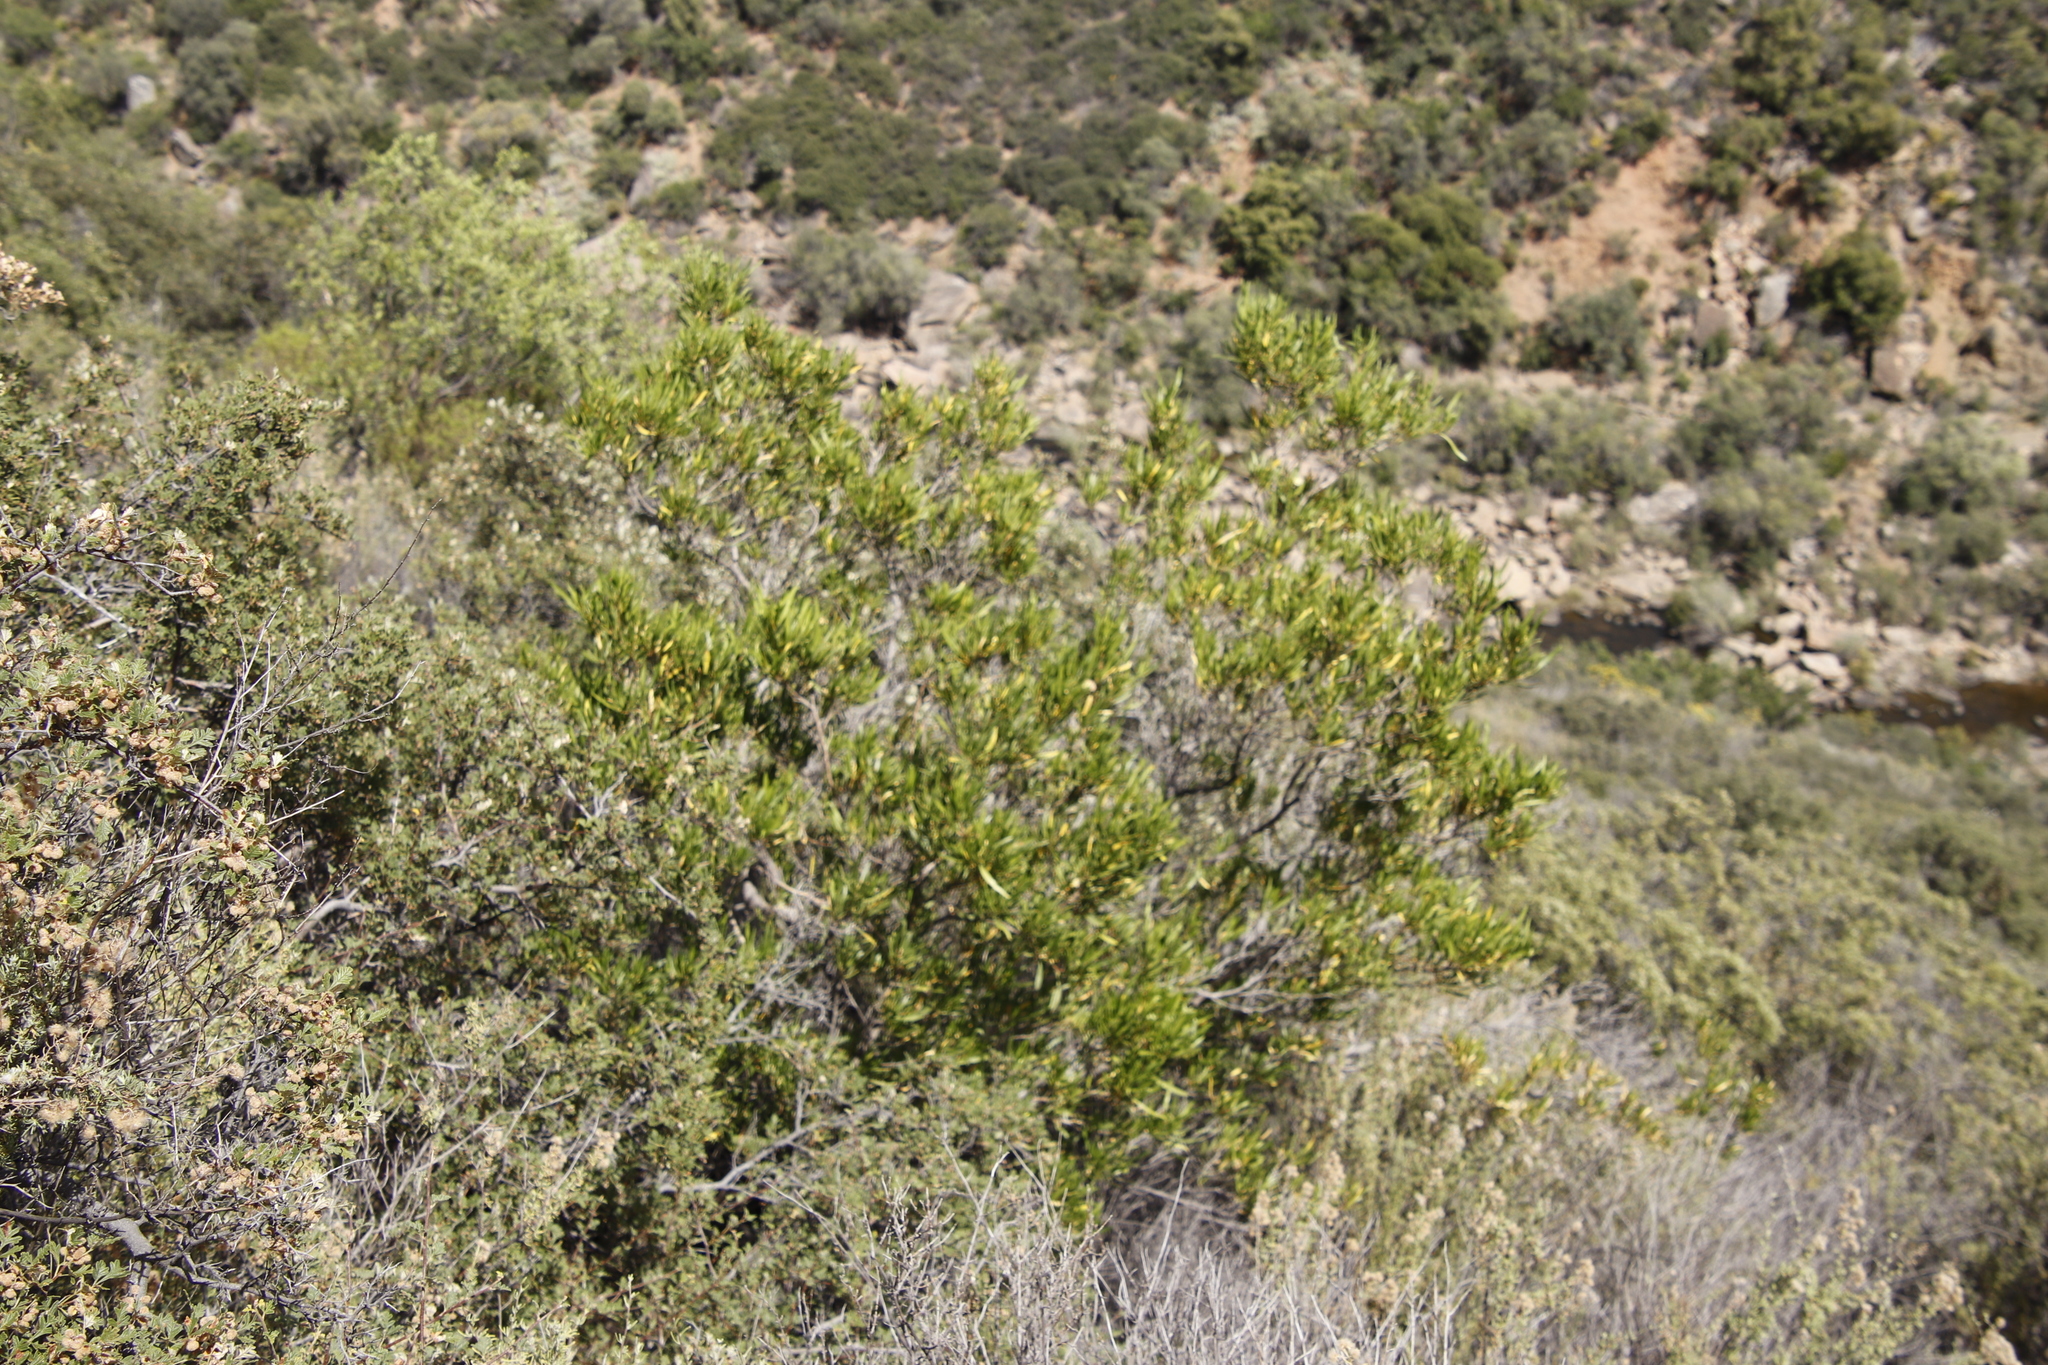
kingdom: Plantae
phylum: Tracheophyta
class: Magnoliopsida
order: Sapindales
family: Sapindaceae
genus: Dodonaea
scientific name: Dodonaea viscosa
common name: Hopbush
